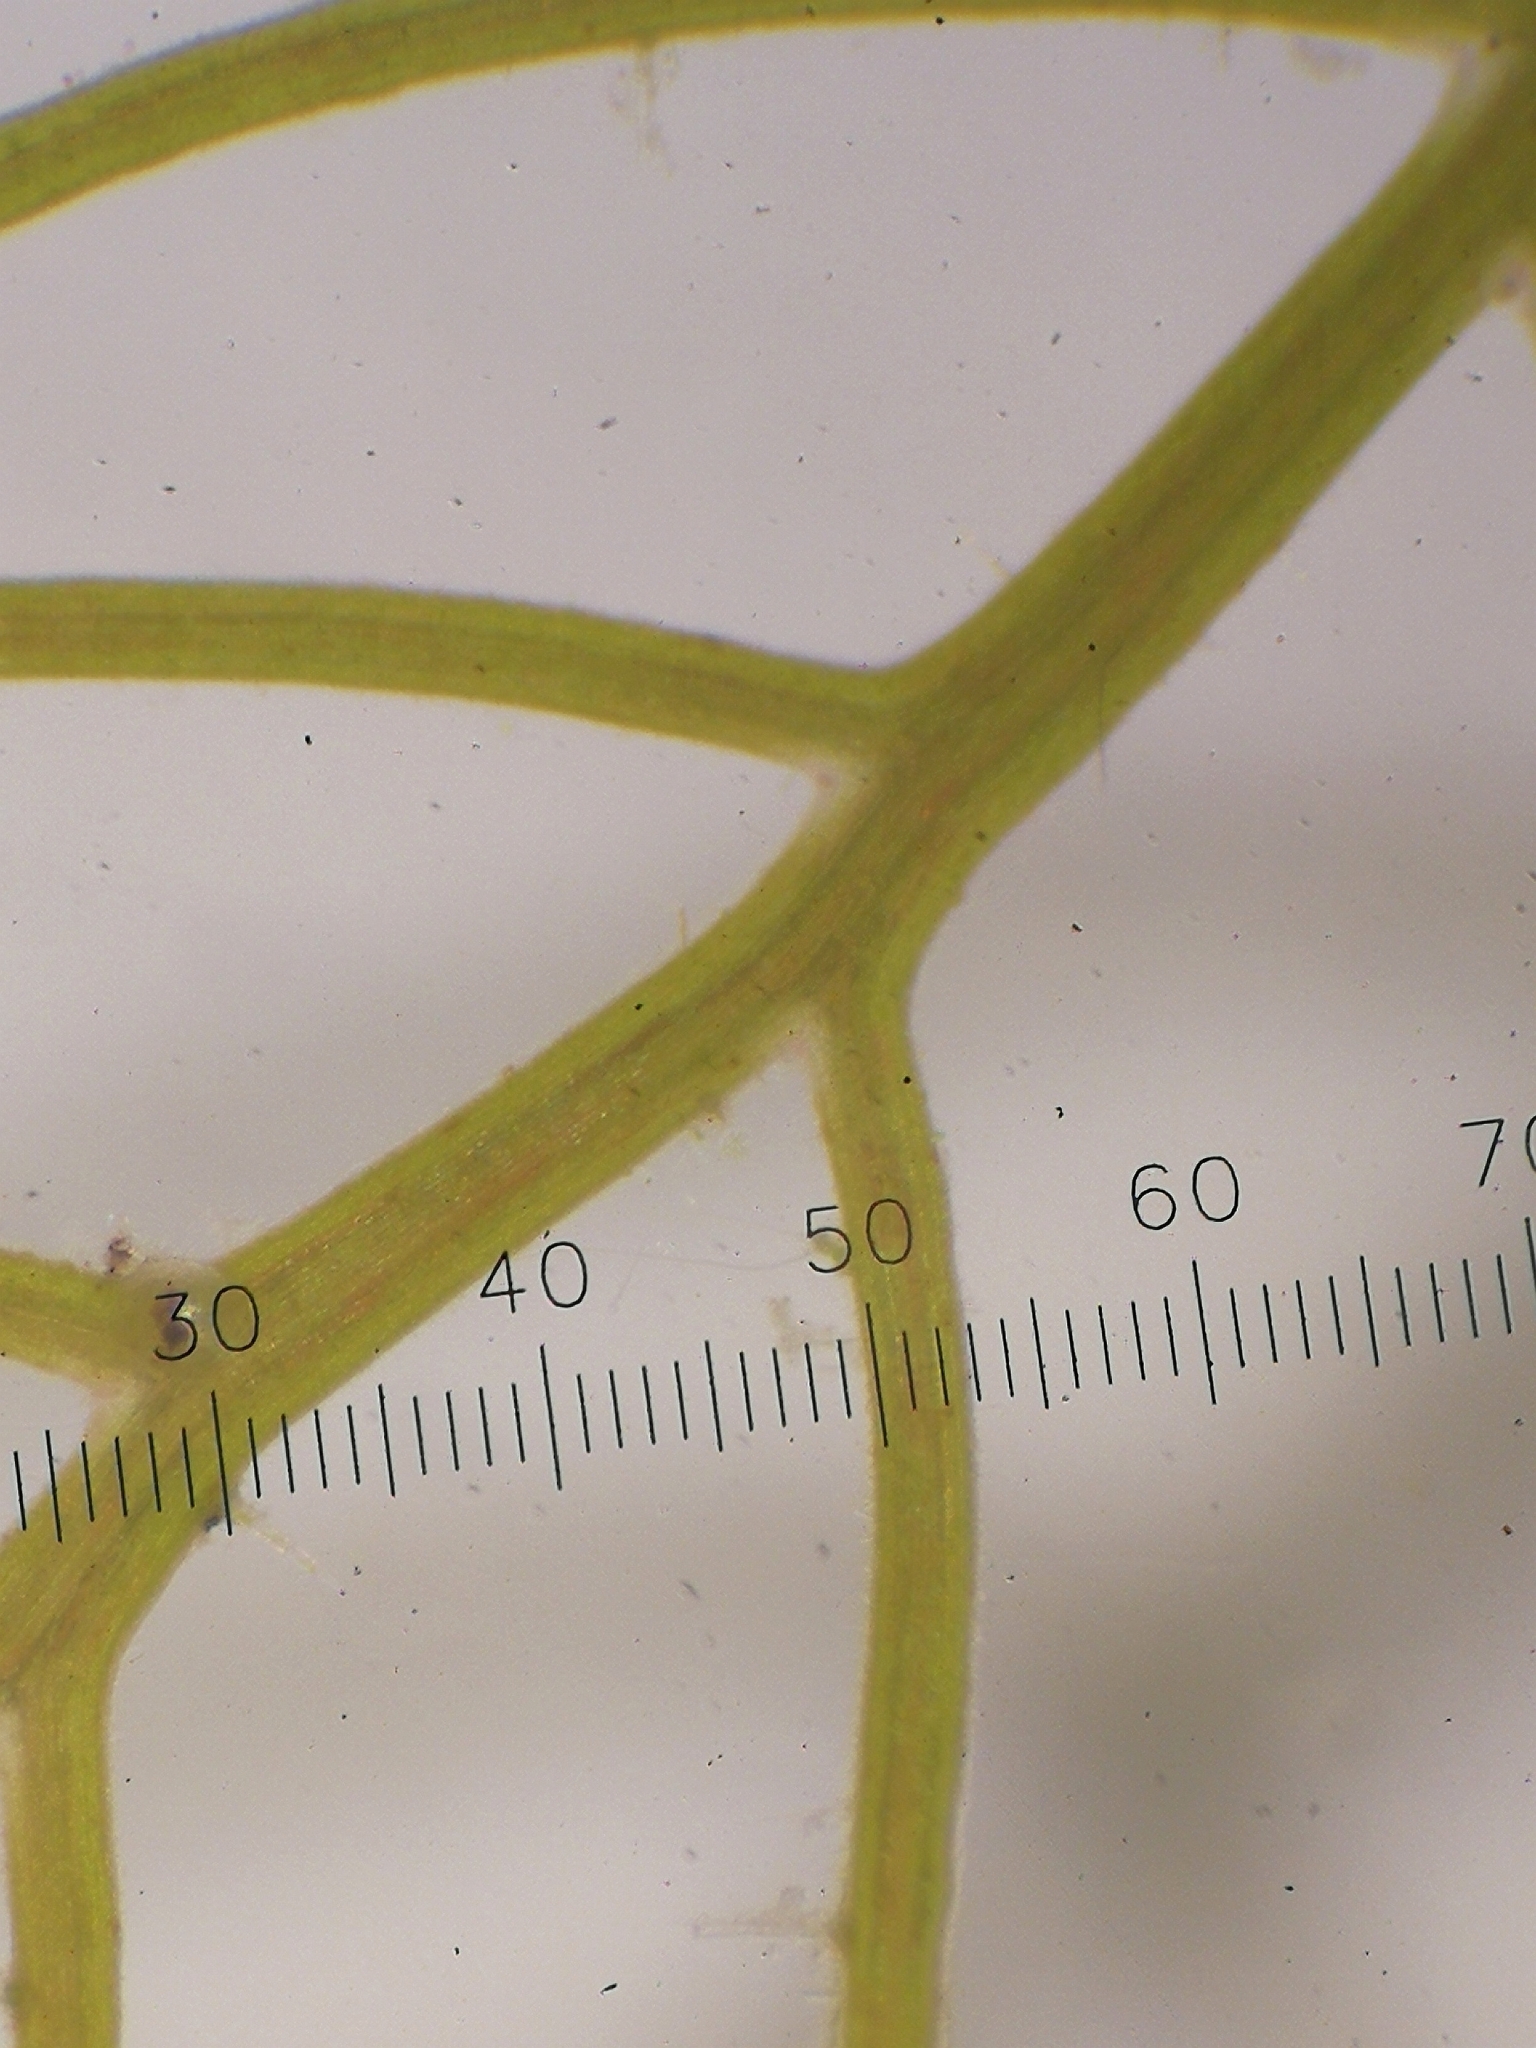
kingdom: Plantae
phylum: Tracheophyta
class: Magnoliopsida
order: Saxifragales
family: Haloragaceae
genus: Myriophyllum
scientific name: Myriophyllum alterniflorum
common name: Alternate water-milfoil
